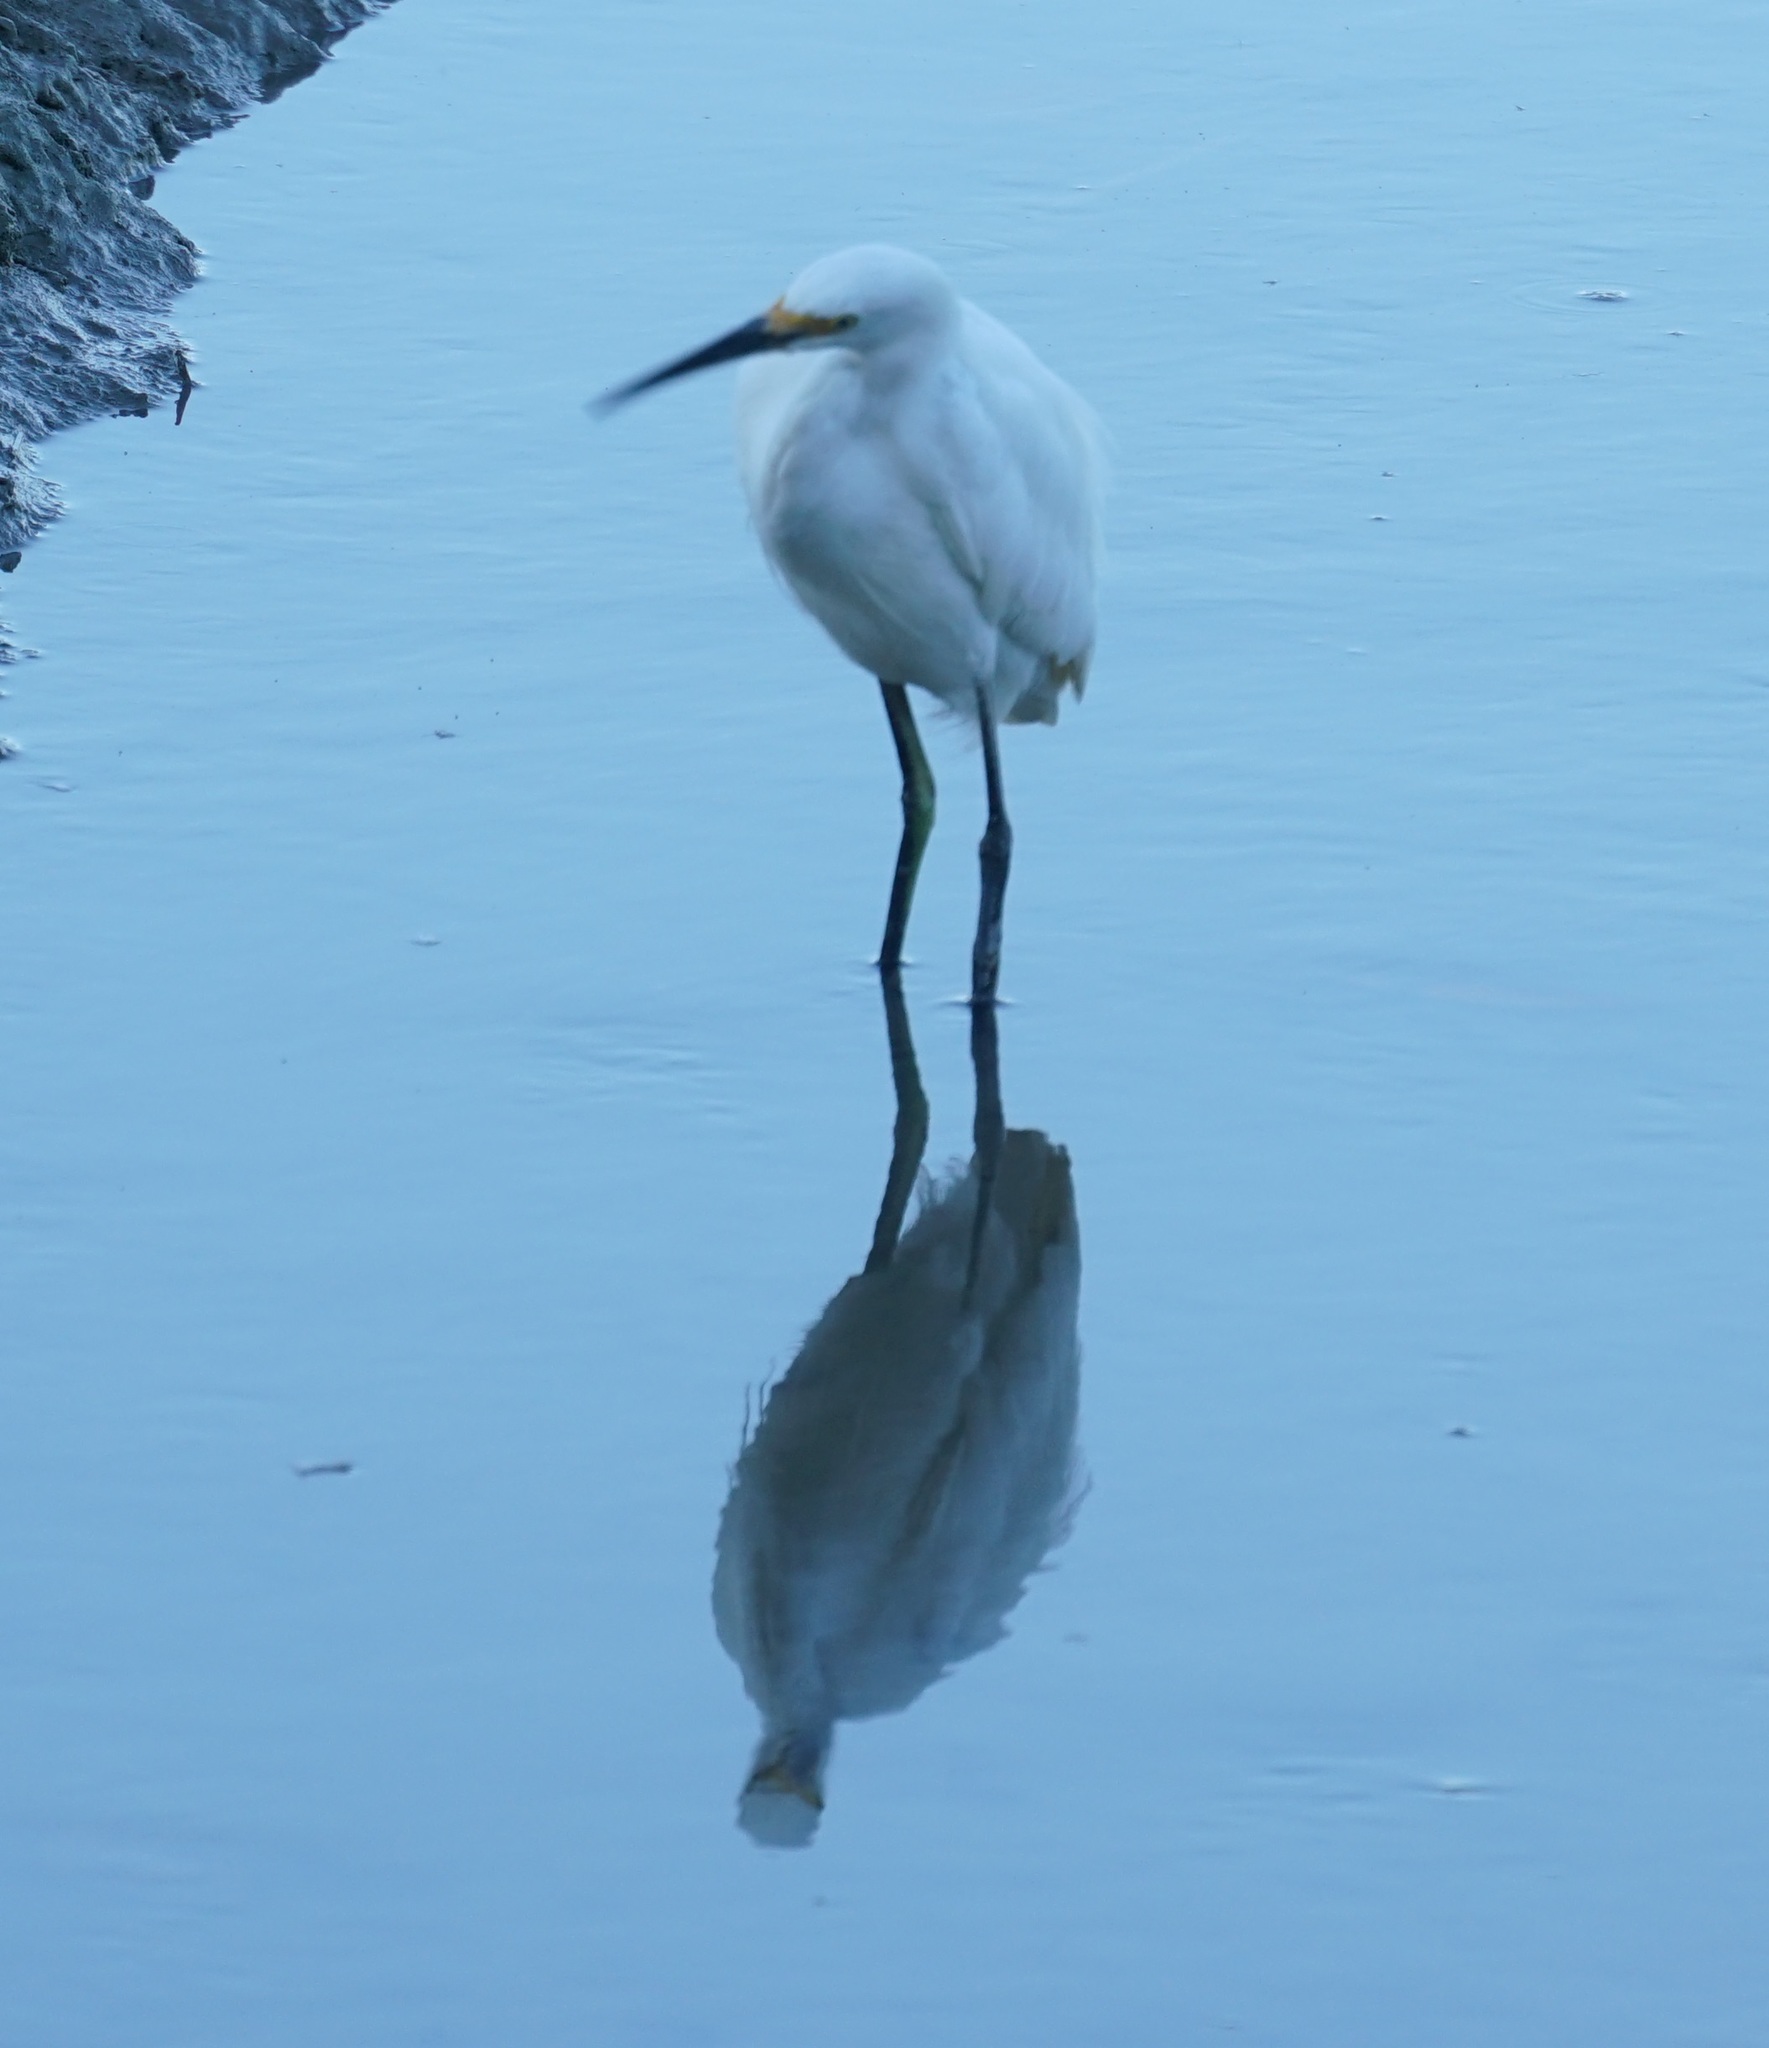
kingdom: Animalia
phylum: Chordata
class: Aves
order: Pelecaniformes
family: Ardeidae
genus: Egretta
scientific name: Egretta garzetta
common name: Little egret
